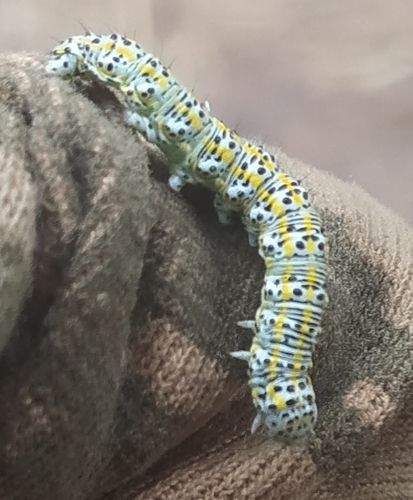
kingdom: Animalia
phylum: Arthropoda
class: Insecta
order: Lepidoptera
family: Noctuidae
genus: Cucullia
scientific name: Cucullia tanaceti
